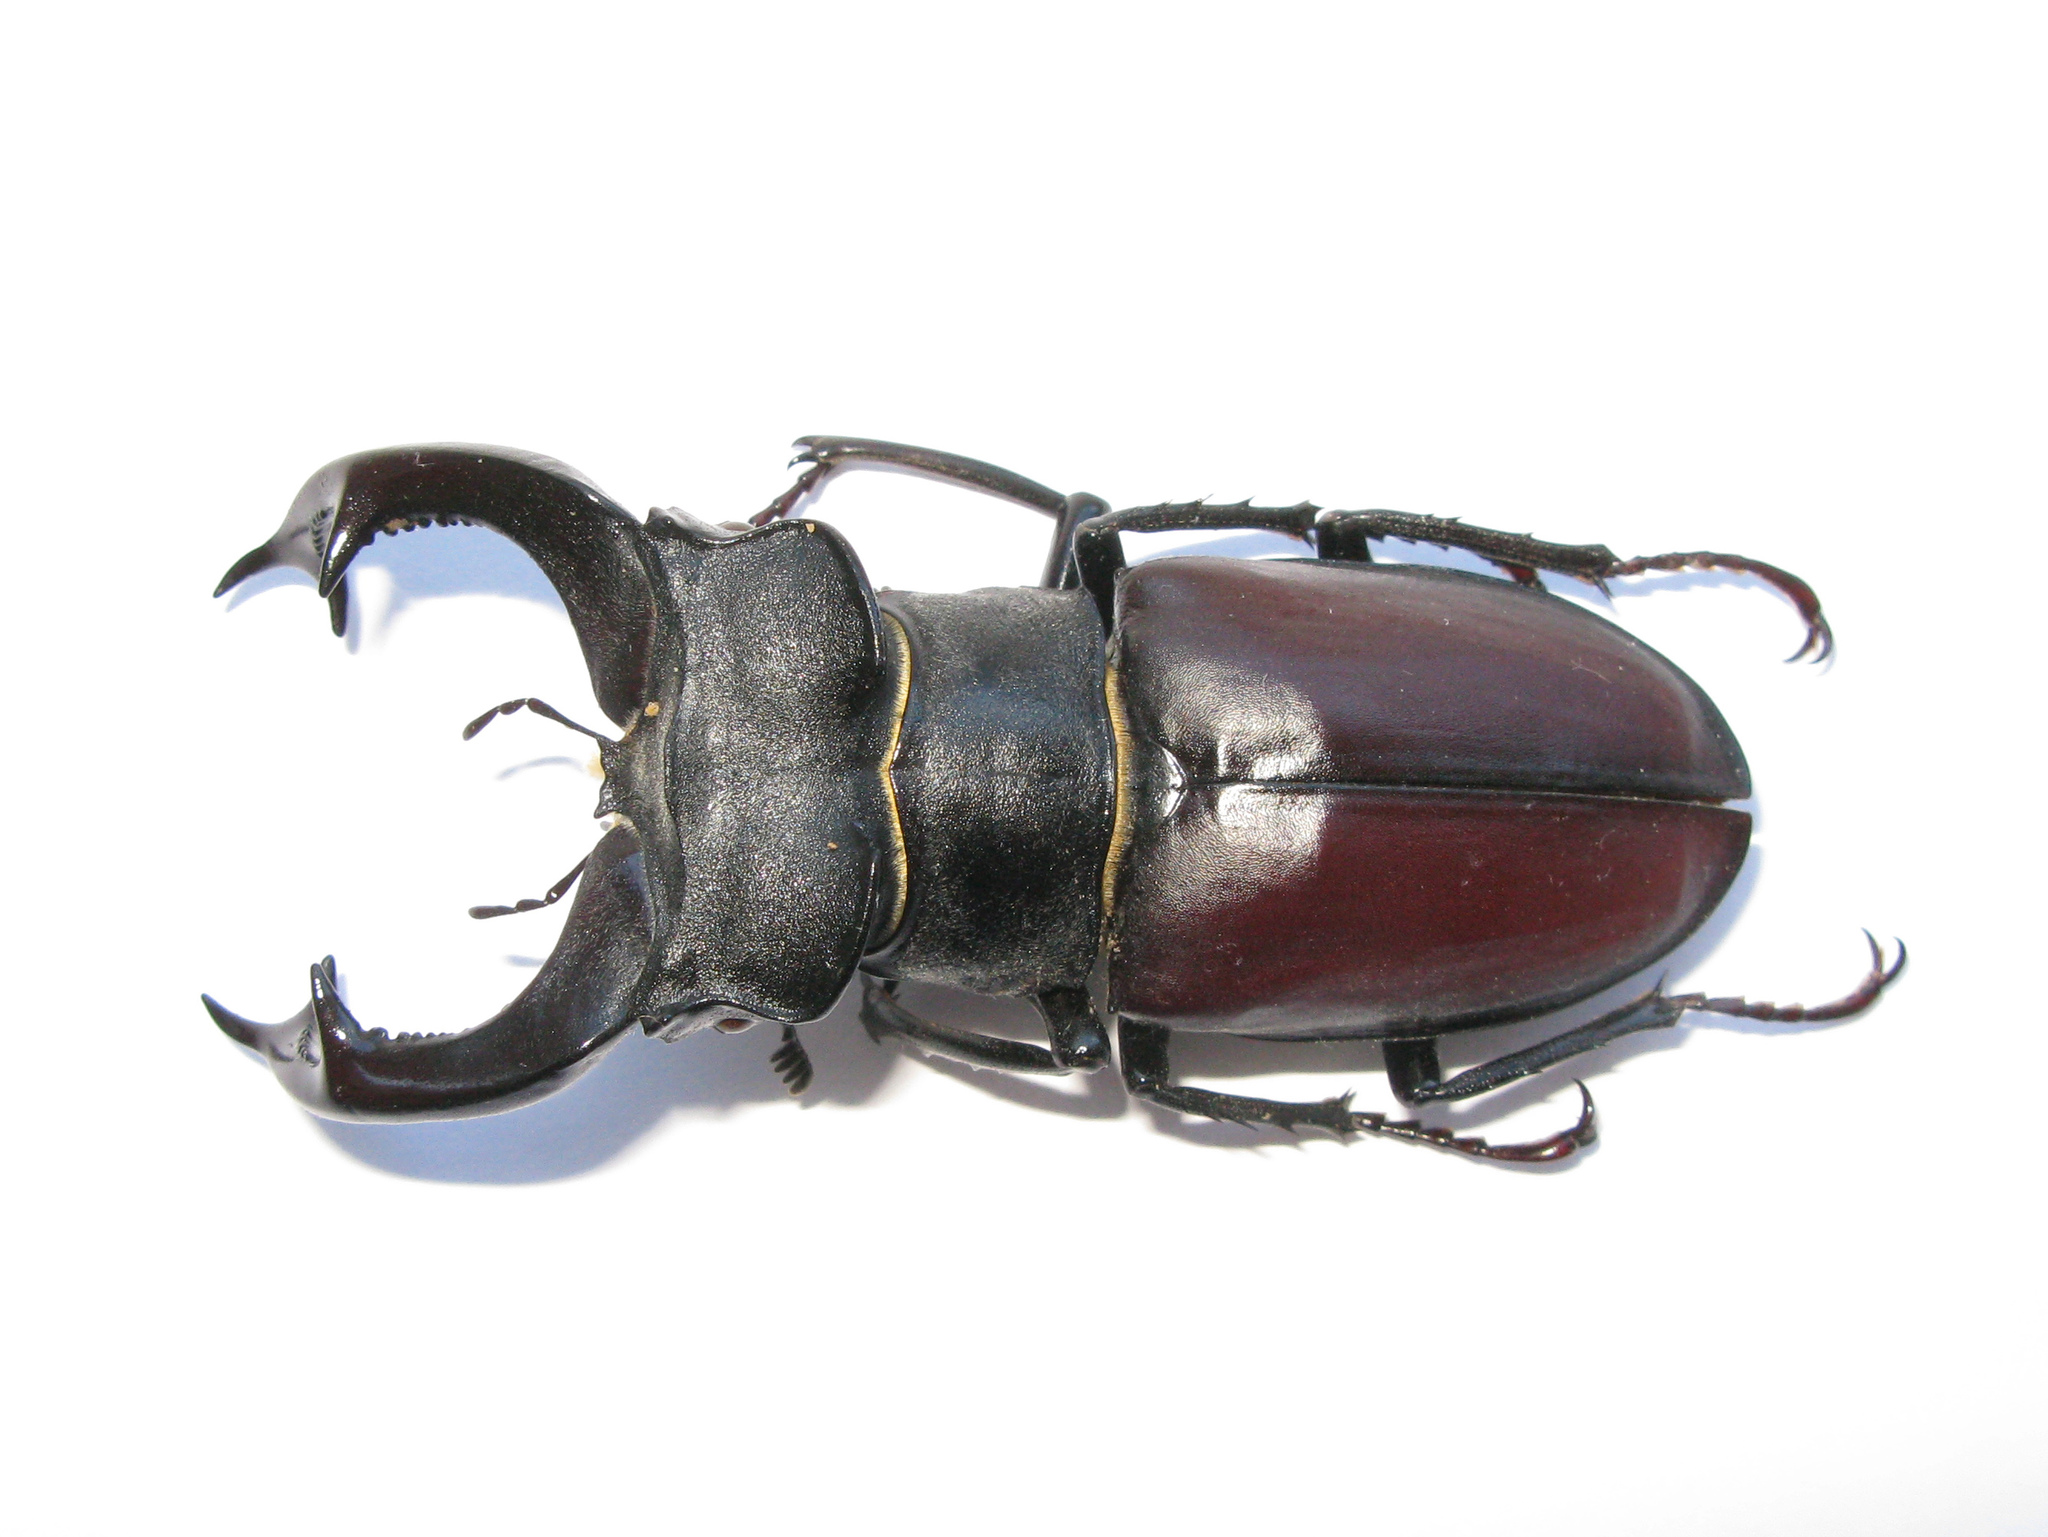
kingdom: Animalia
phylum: Arthropoda
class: Insecta
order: Coleoptera
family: Lucanidae
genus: Lucanus
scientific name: Lucanus cervus
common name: Stag beetle
